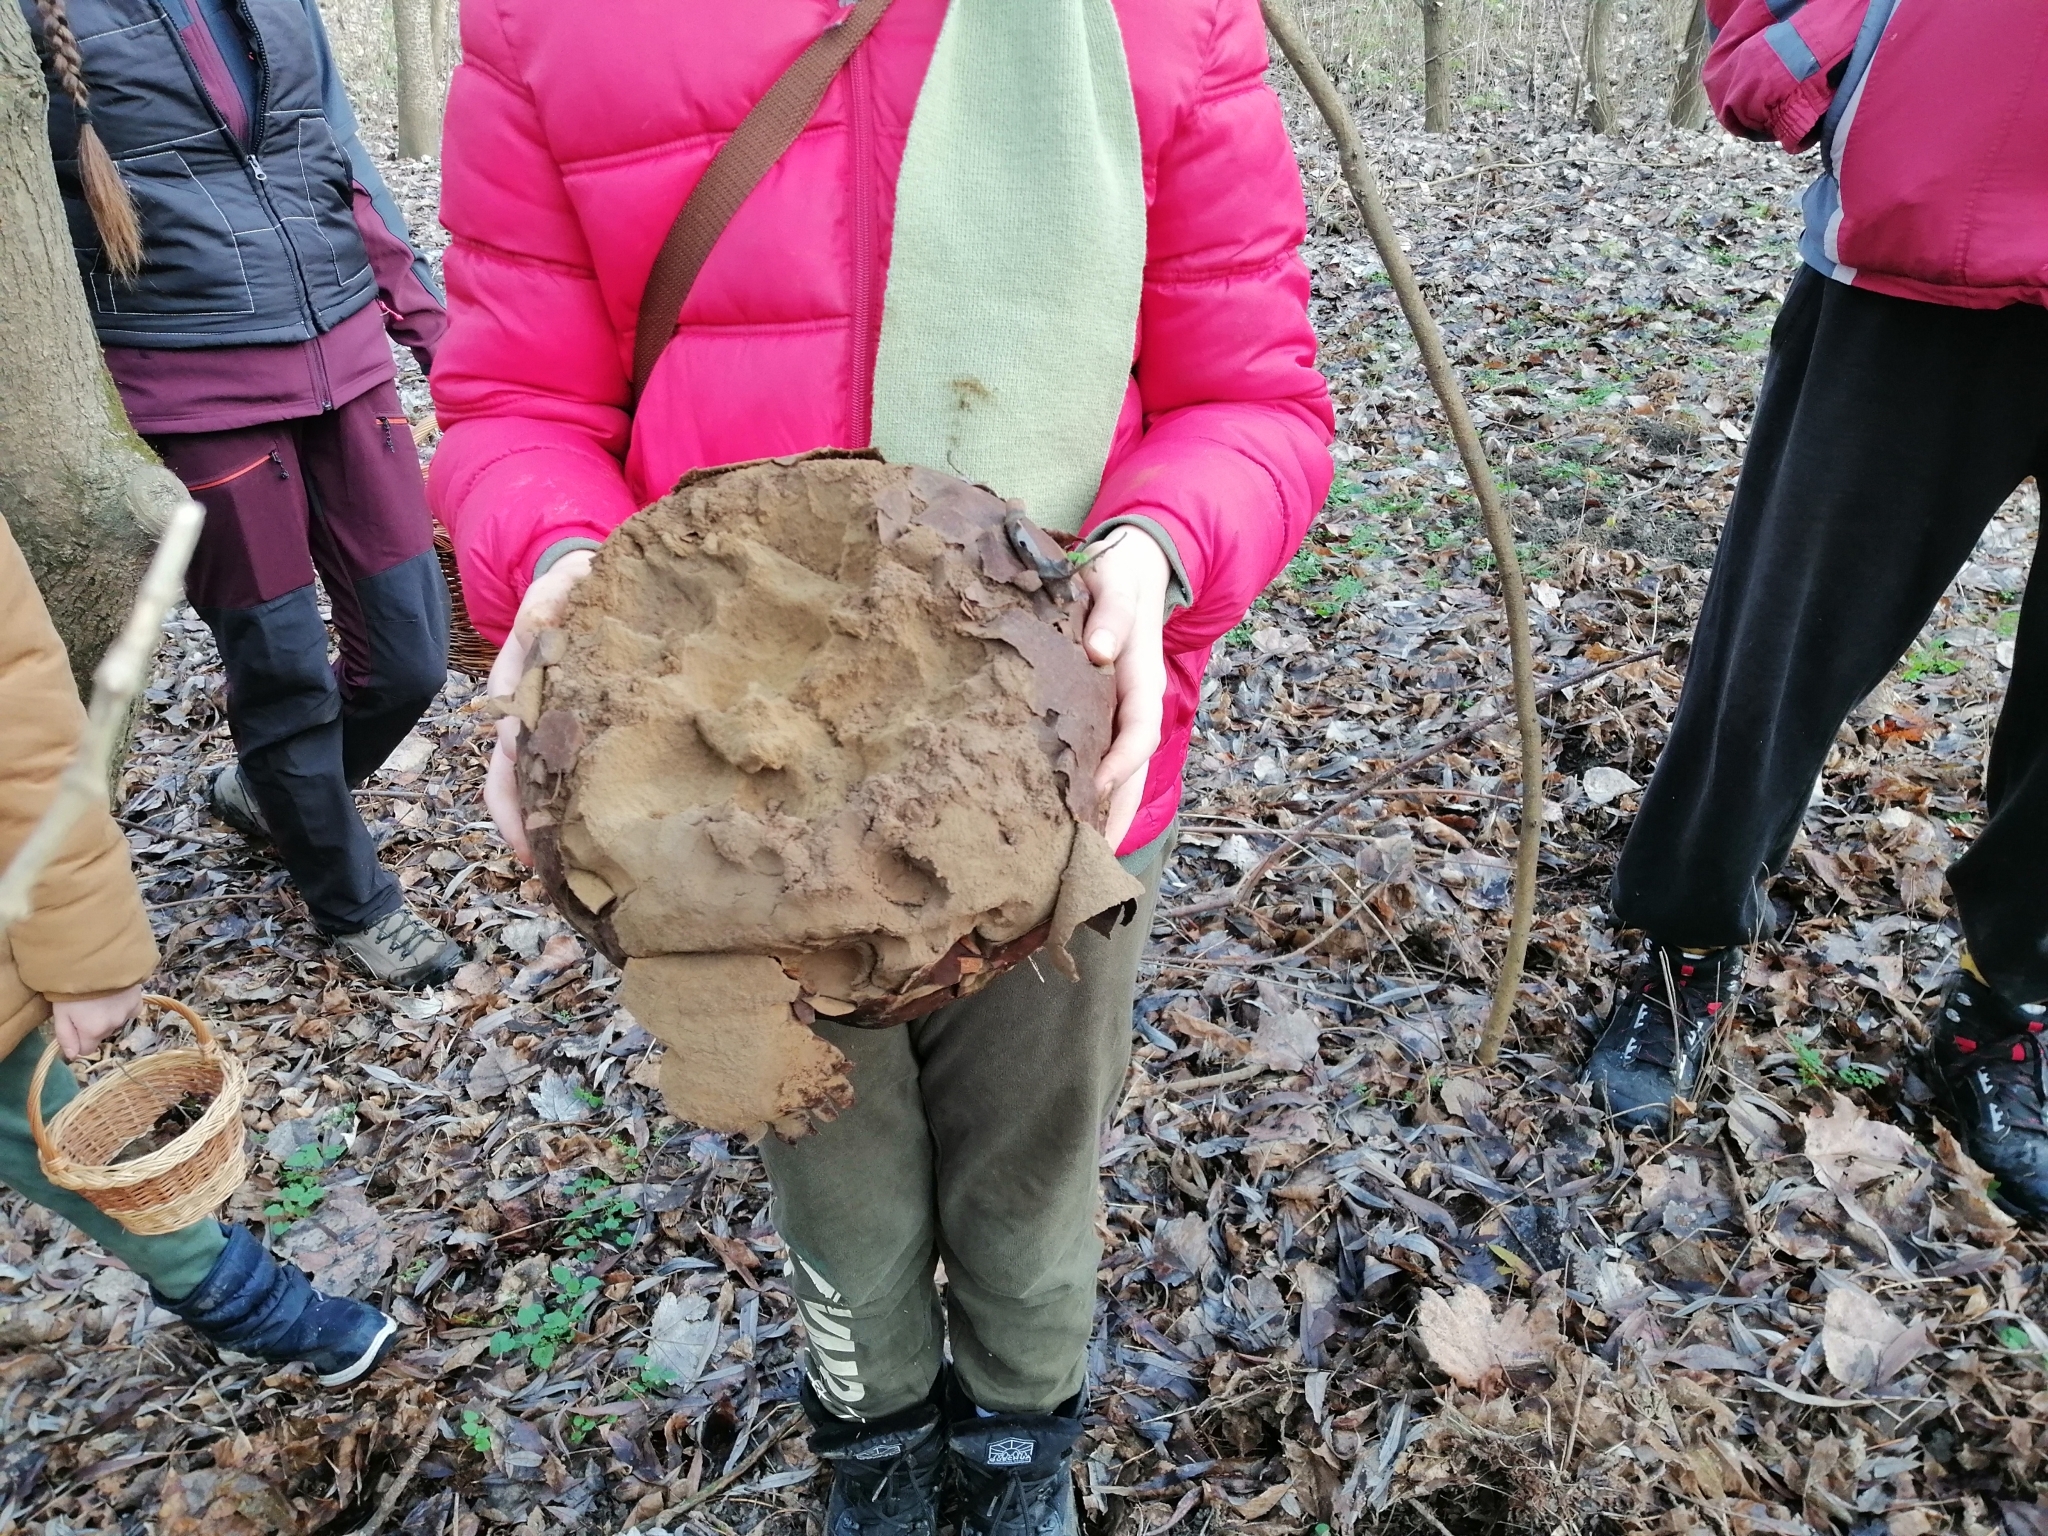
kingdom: Fungi
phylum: Basidiomycota
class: Agaricomycetes
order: Agaricales
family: Lycoperdaceae
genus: Calvatia
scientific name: Calvatia gigantea
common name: Giant puffball
